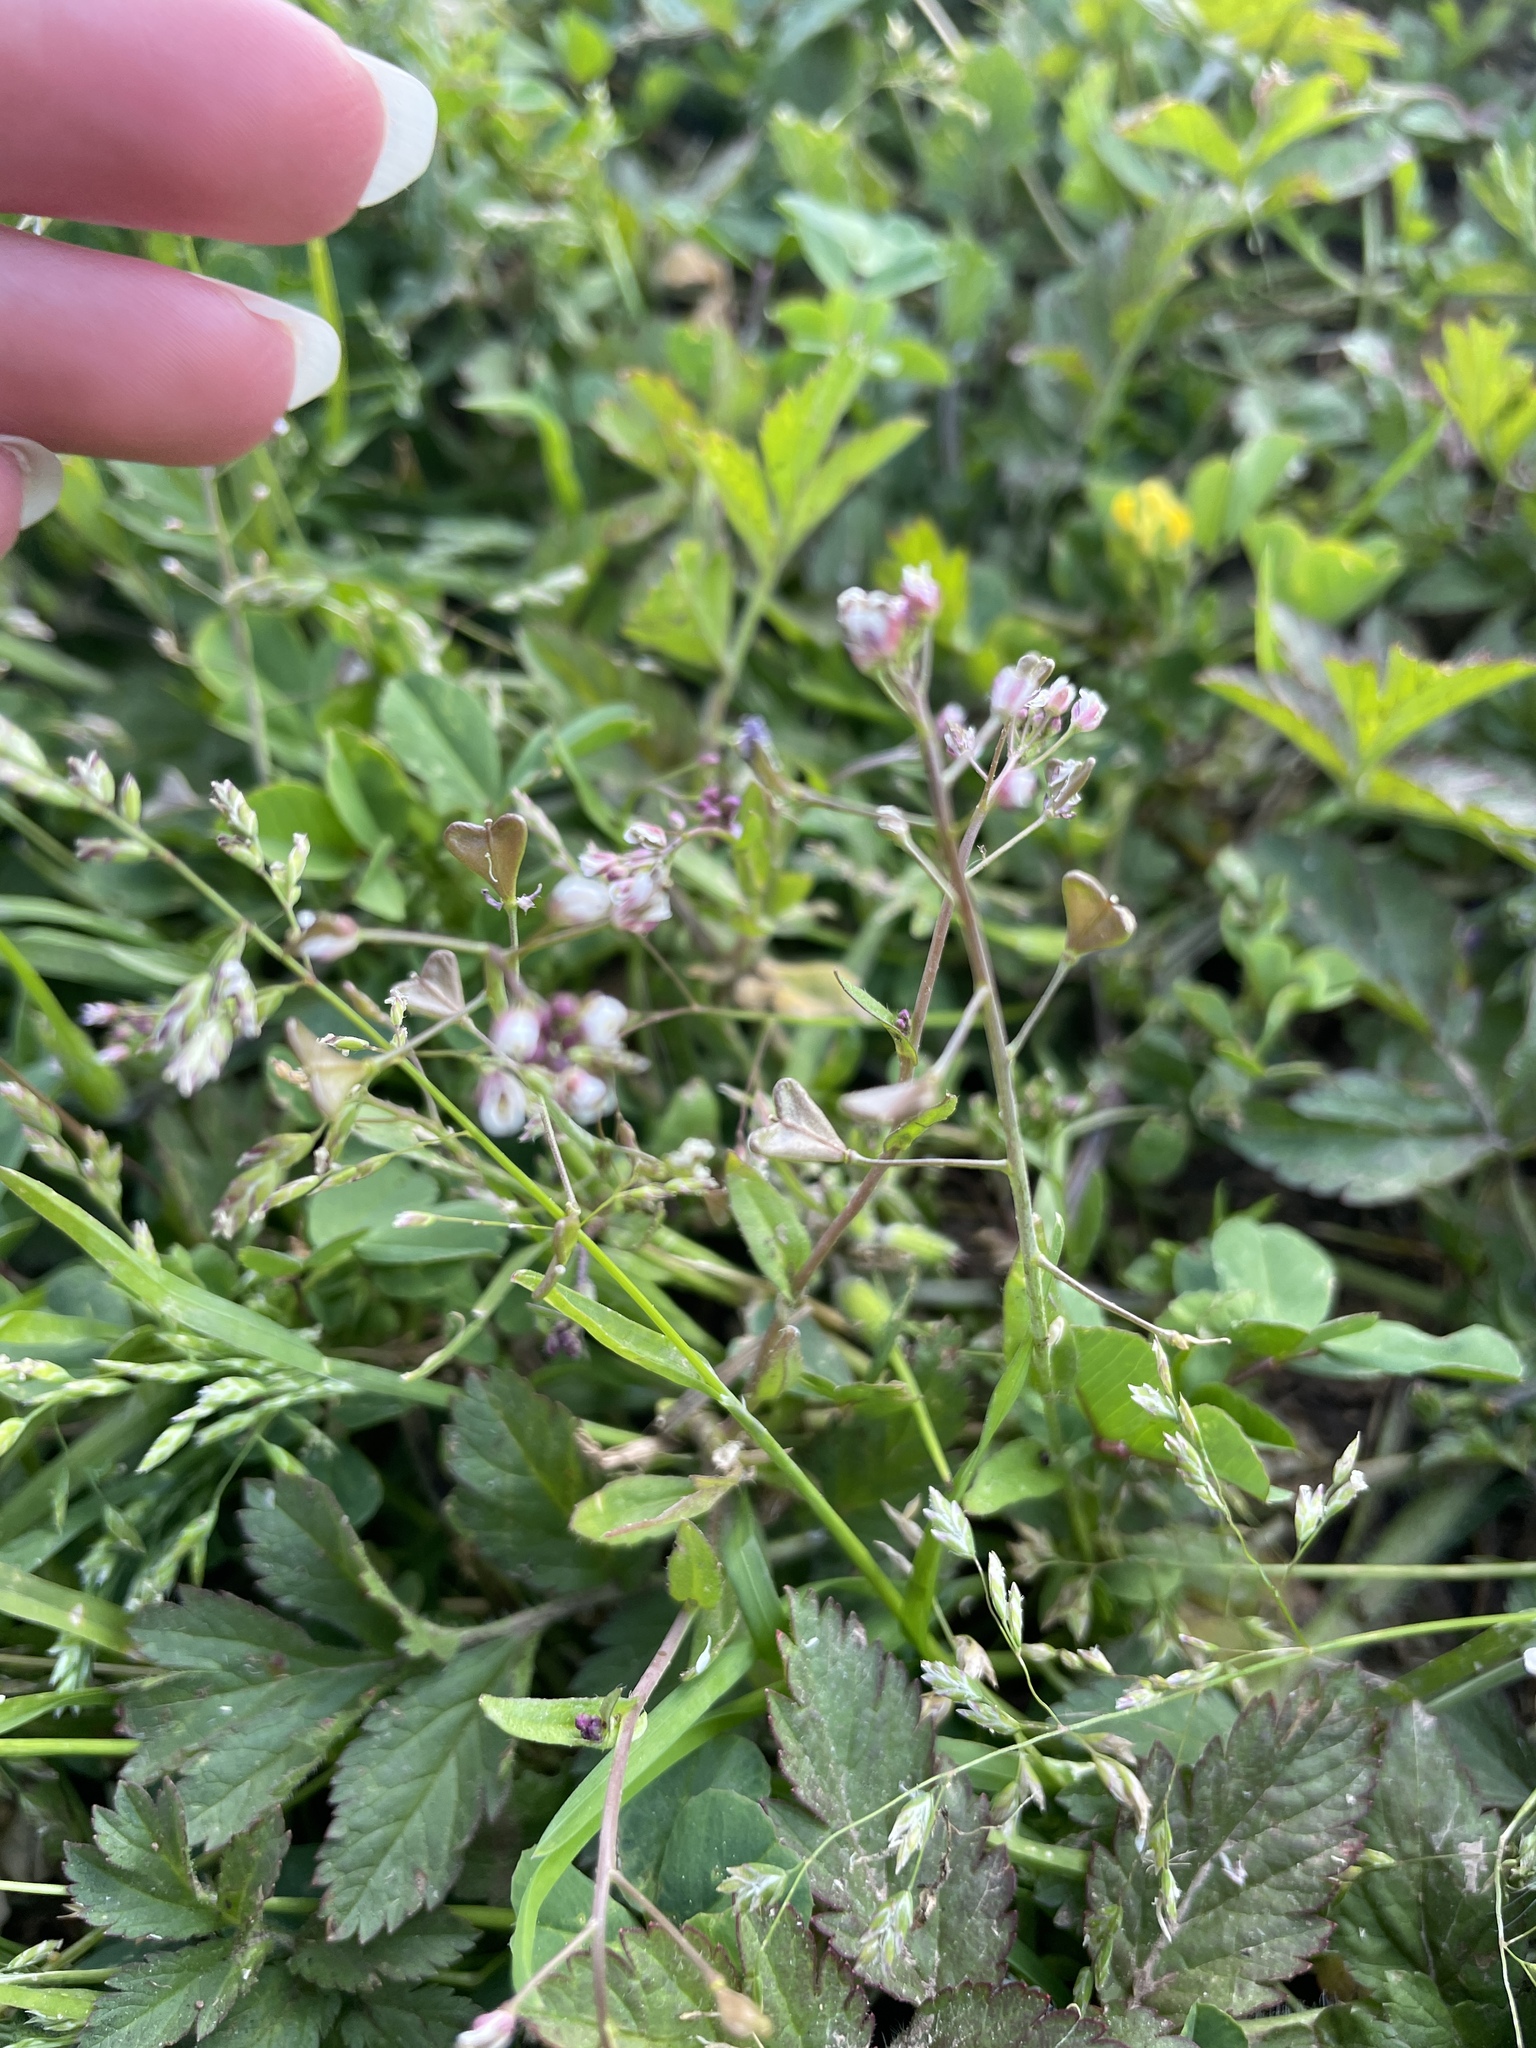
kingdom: Plantae
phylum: Tracheophyta
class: Magnoliopsida
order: Brassicales
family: Brassicaceae
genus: Capsella
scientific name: Capsella bursa-pastoris
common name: Shepherd's purse
